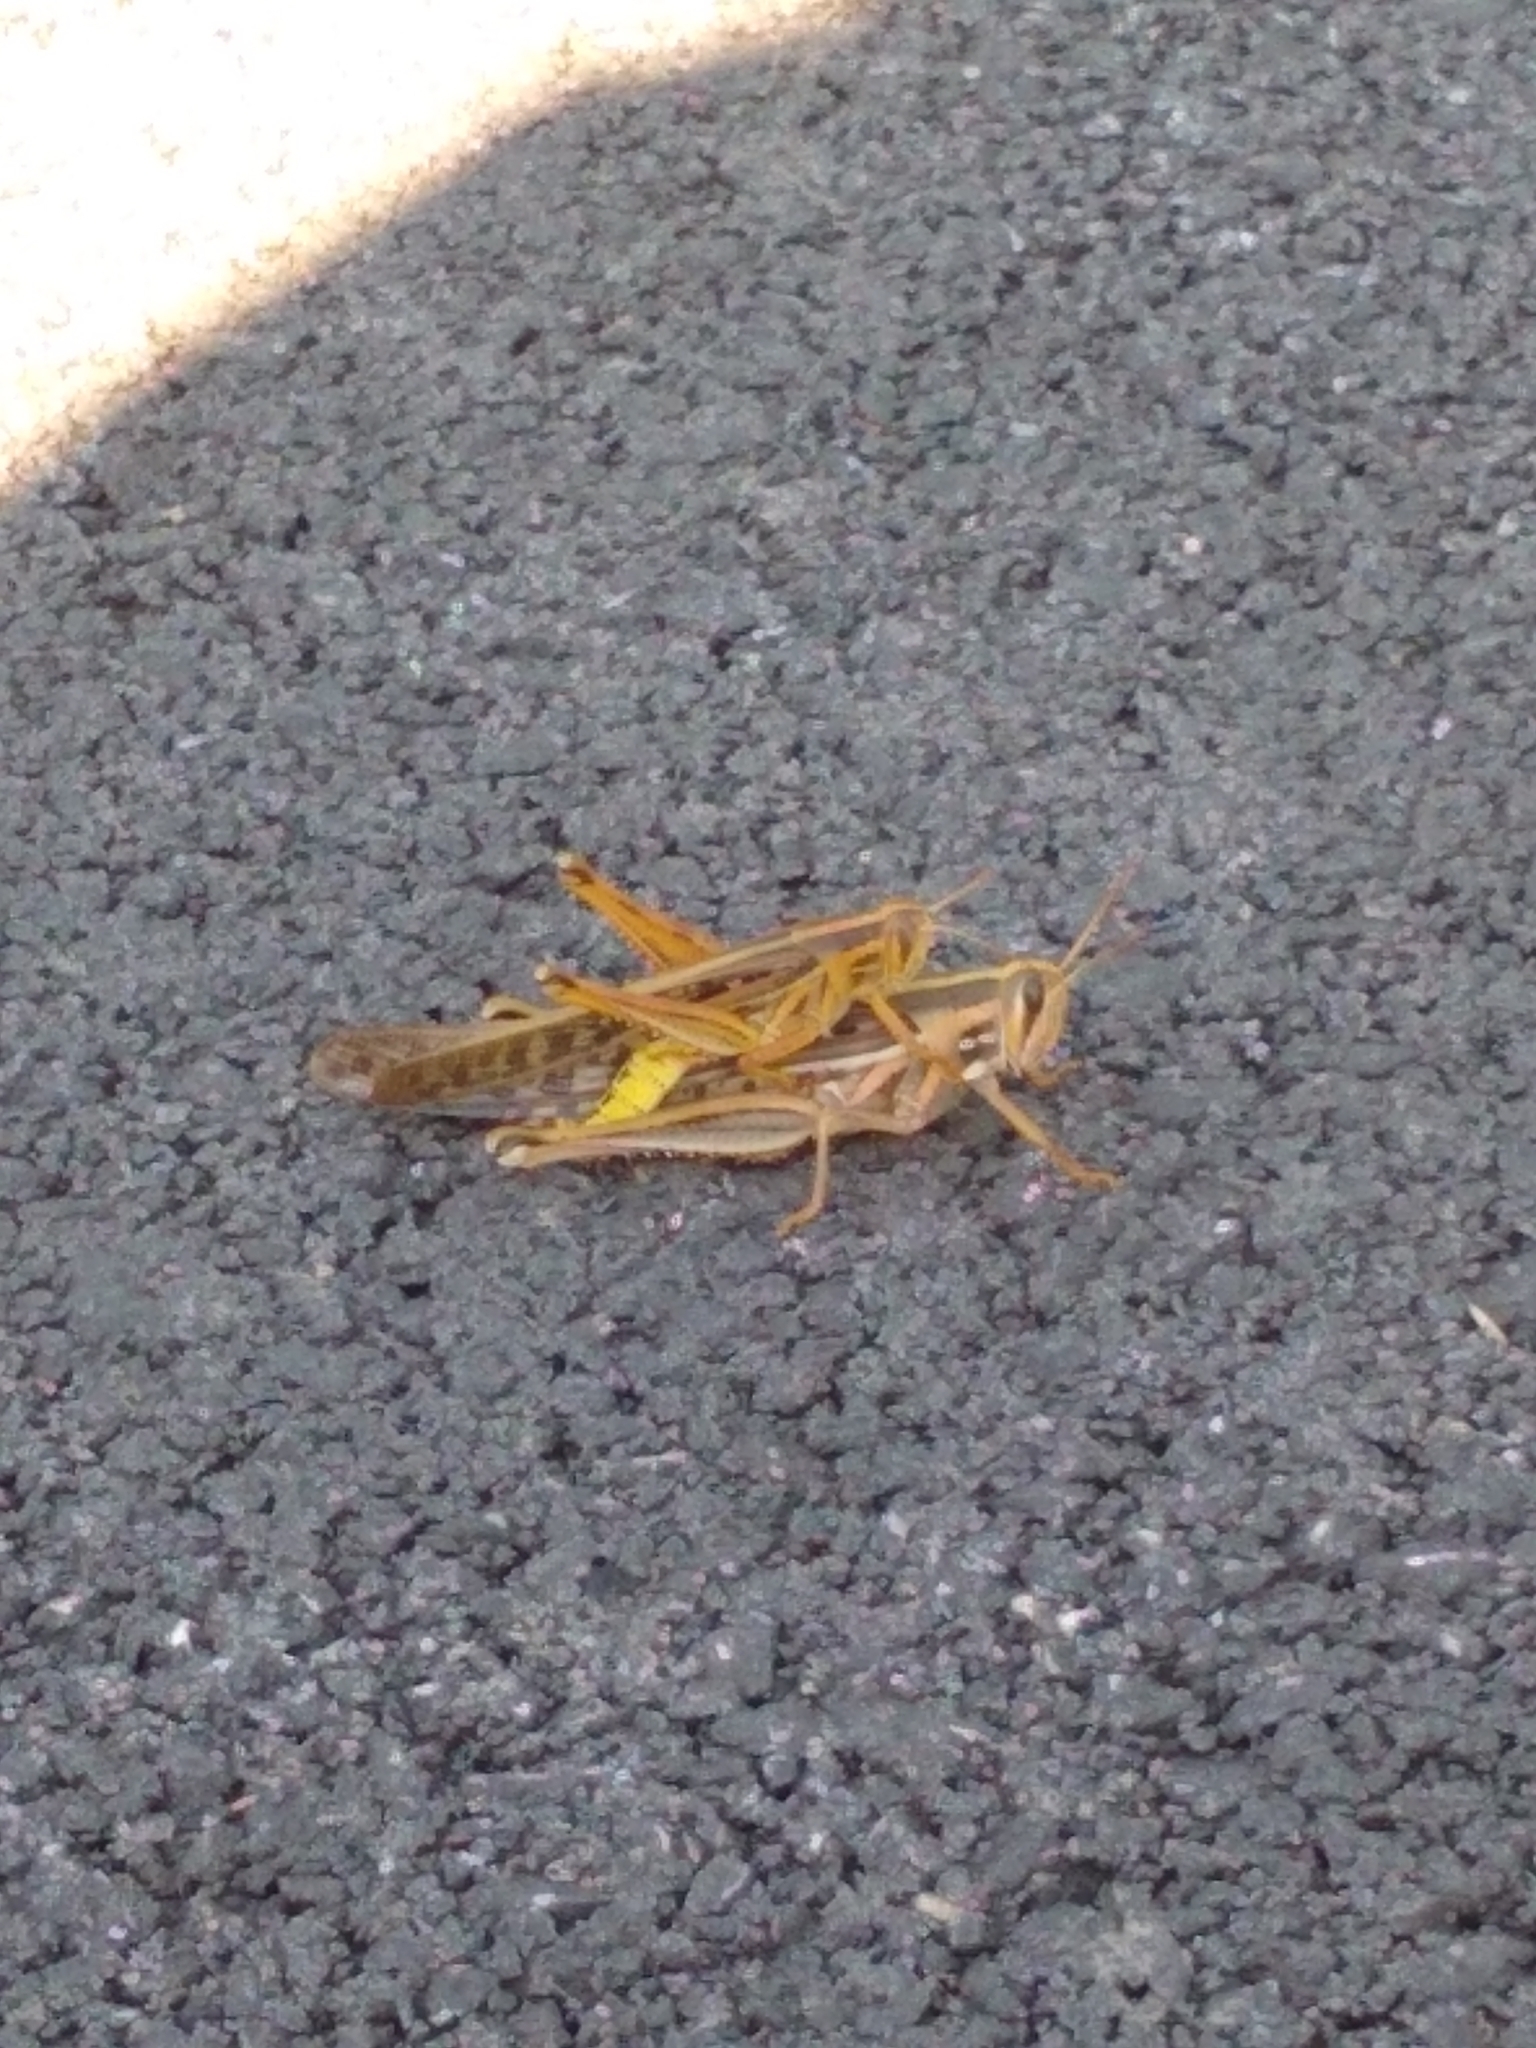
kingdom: Animalia
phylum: Arthropoda
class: Insecta
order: Orthoptera
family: Acrididae
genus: Schistocerca
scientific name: Schistocerca americana
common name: American bird locust
